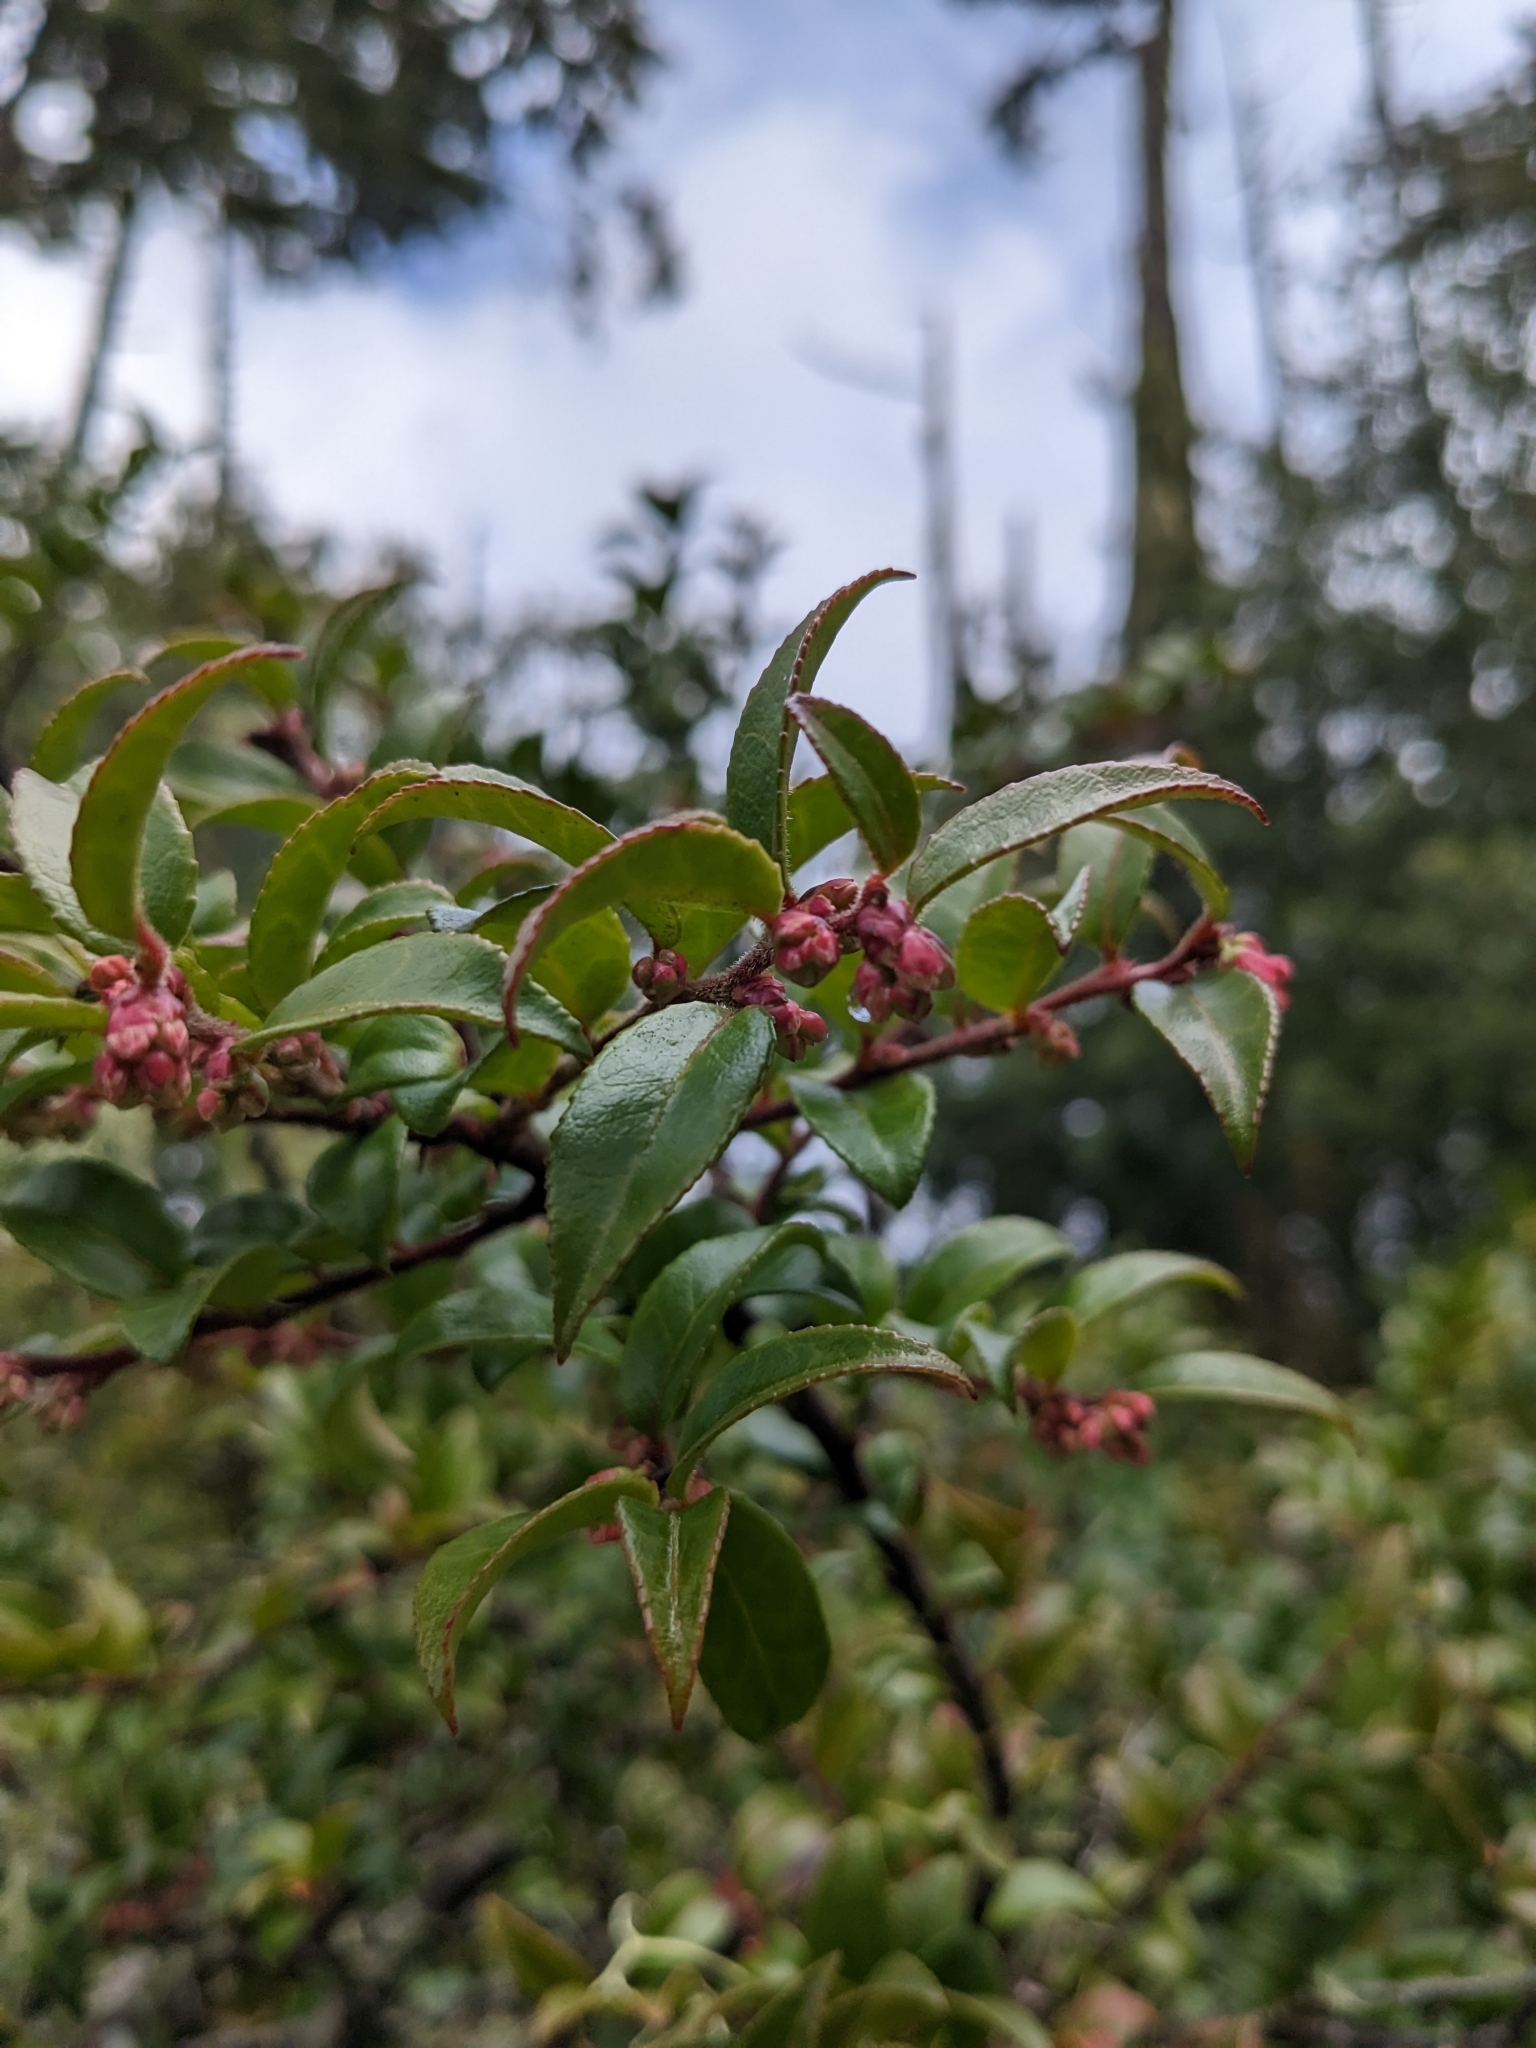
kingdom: Plantae
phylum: Tracheophyta
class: Magnoliopsida
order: Ericales
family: Ericaceae
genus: Vaccinium
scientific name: Vaccinium ovatum
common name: California-huckleberry
